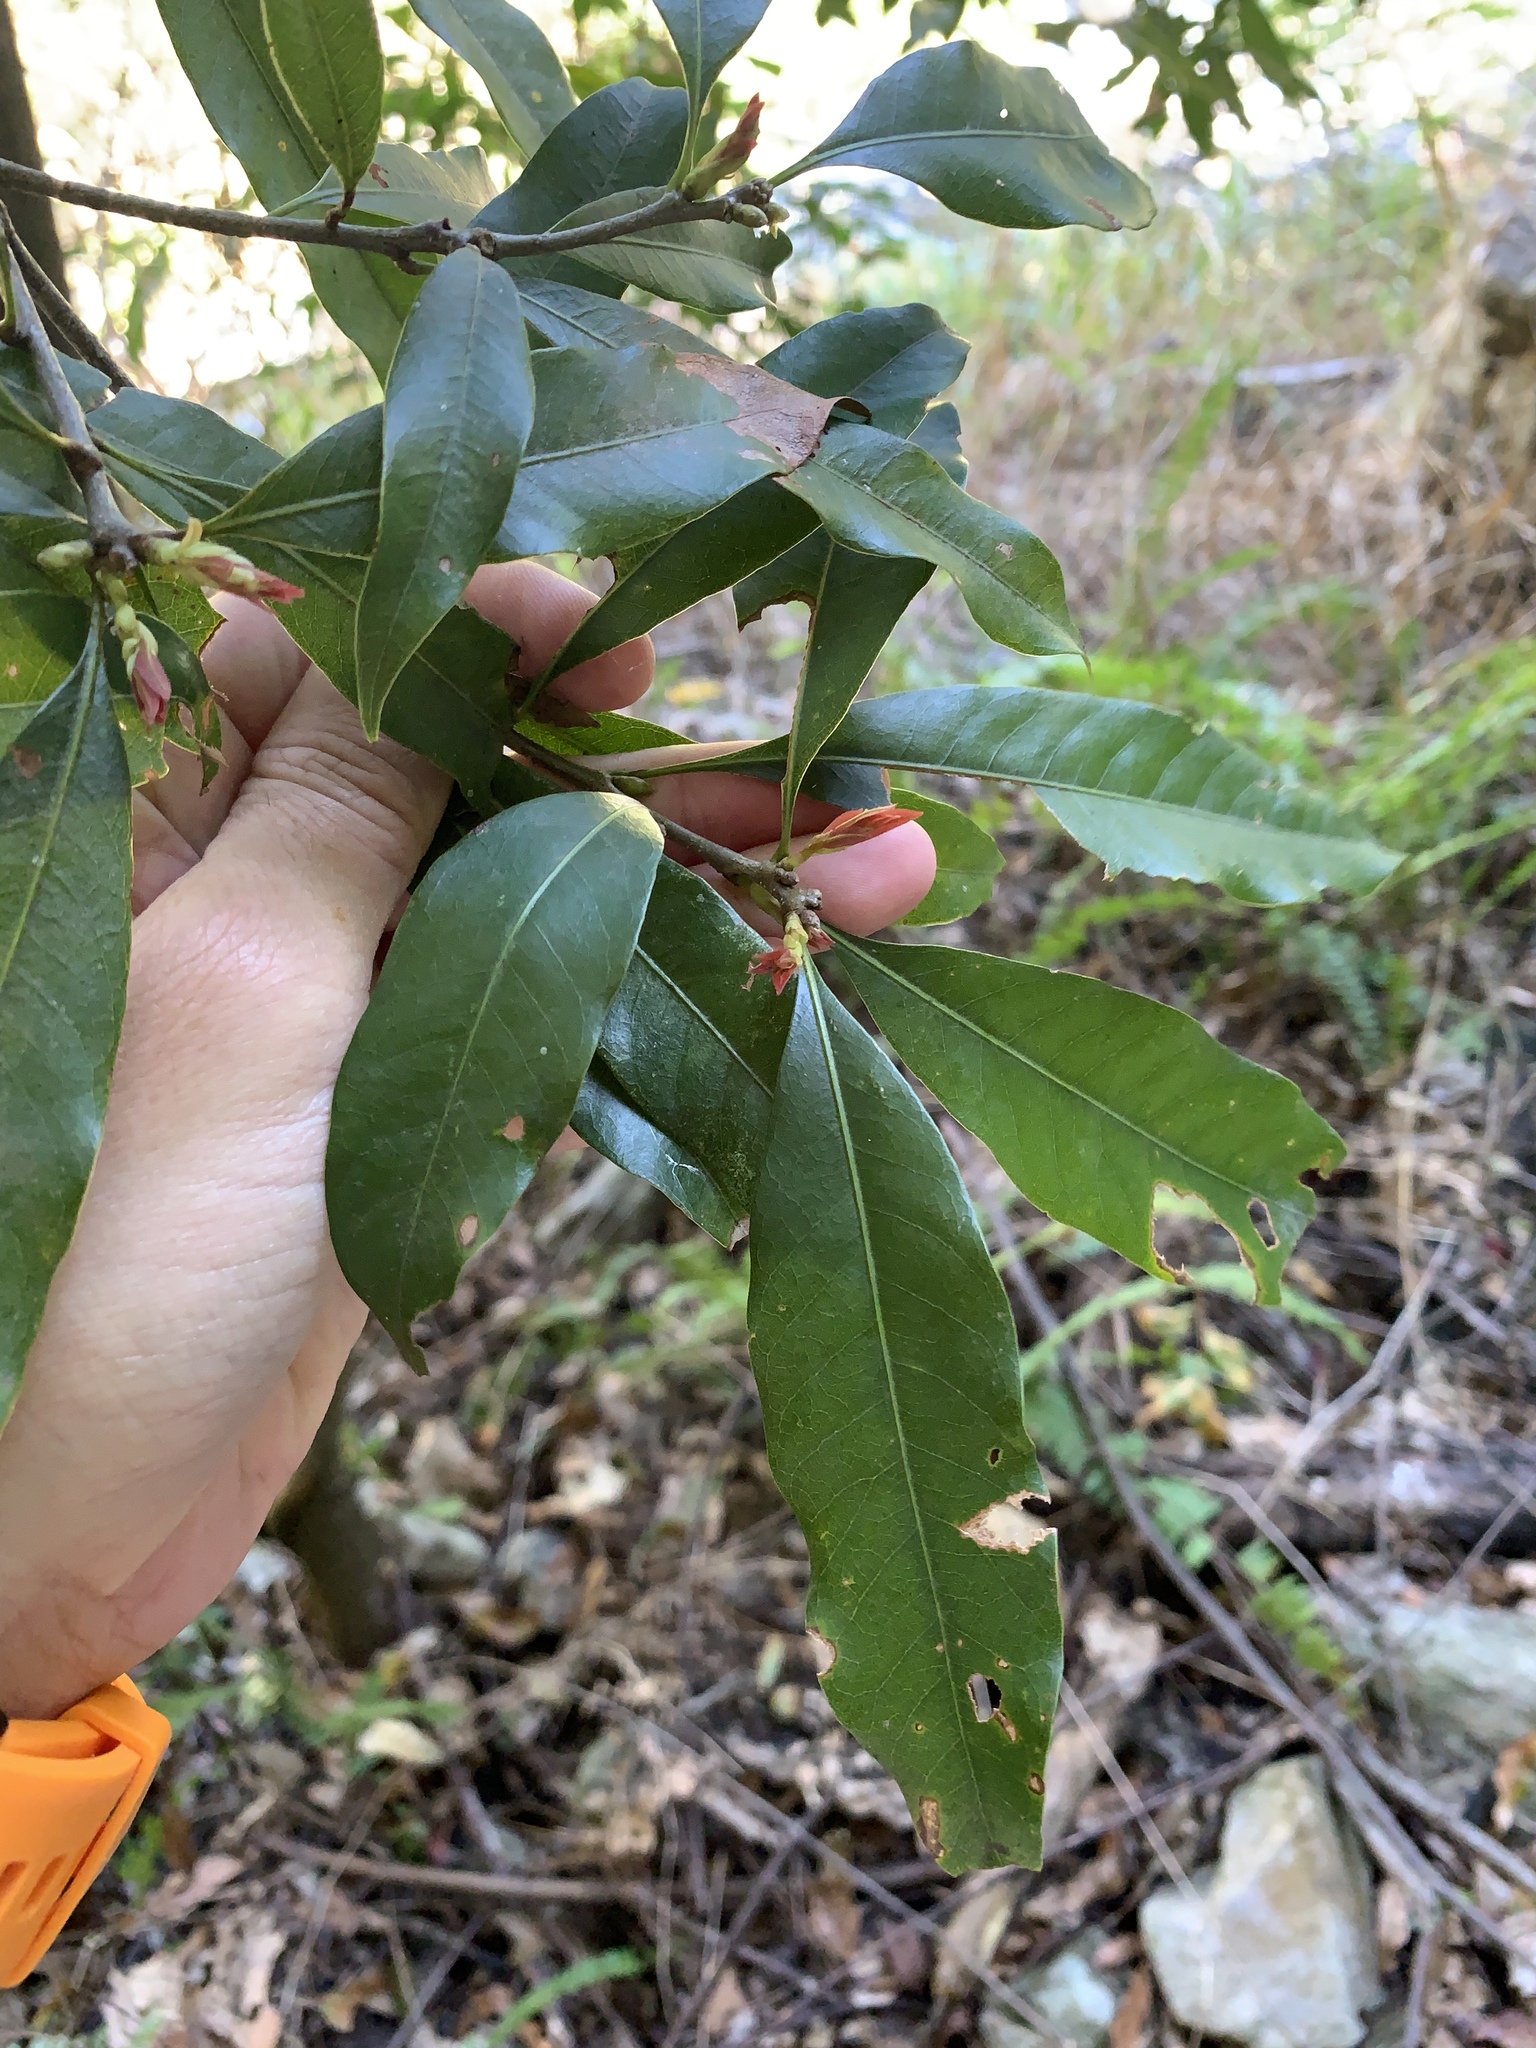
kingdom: Plantae
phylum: Tracheophyta
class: Magnoliopsida
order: Fagales
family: Fagaceae
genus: Lithocarpus
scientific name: Lithocarpus hancei
